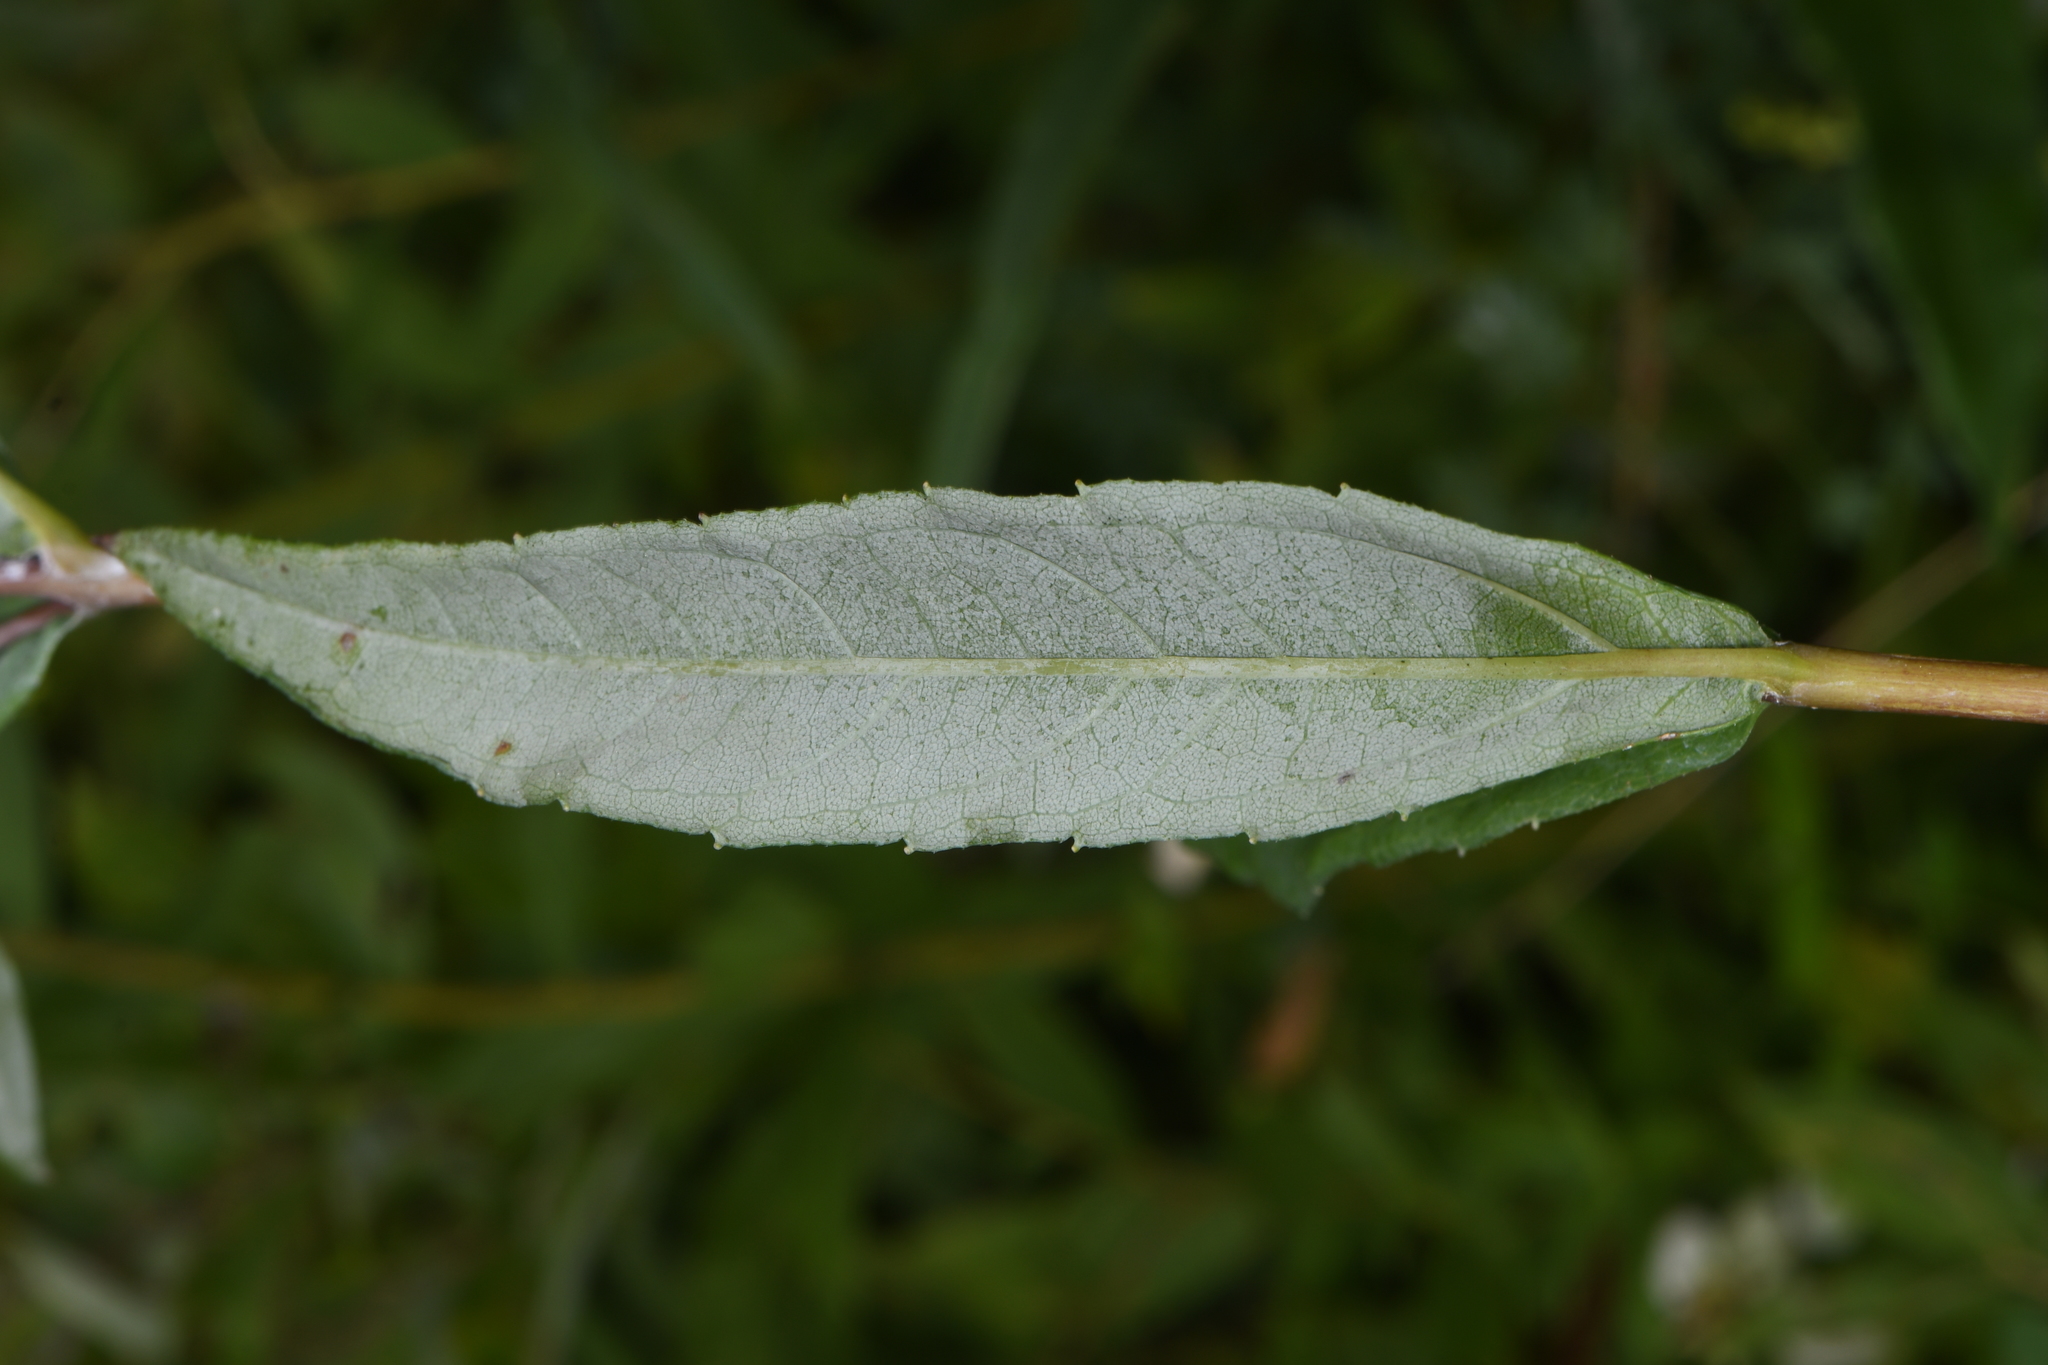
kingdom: Plantae
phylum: Tracheophyta
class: Magnoliopsida
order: Asterales
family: Asteraceae
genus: Helianthus
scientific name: Helianthus eggertii
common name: Eggert's sunflower
